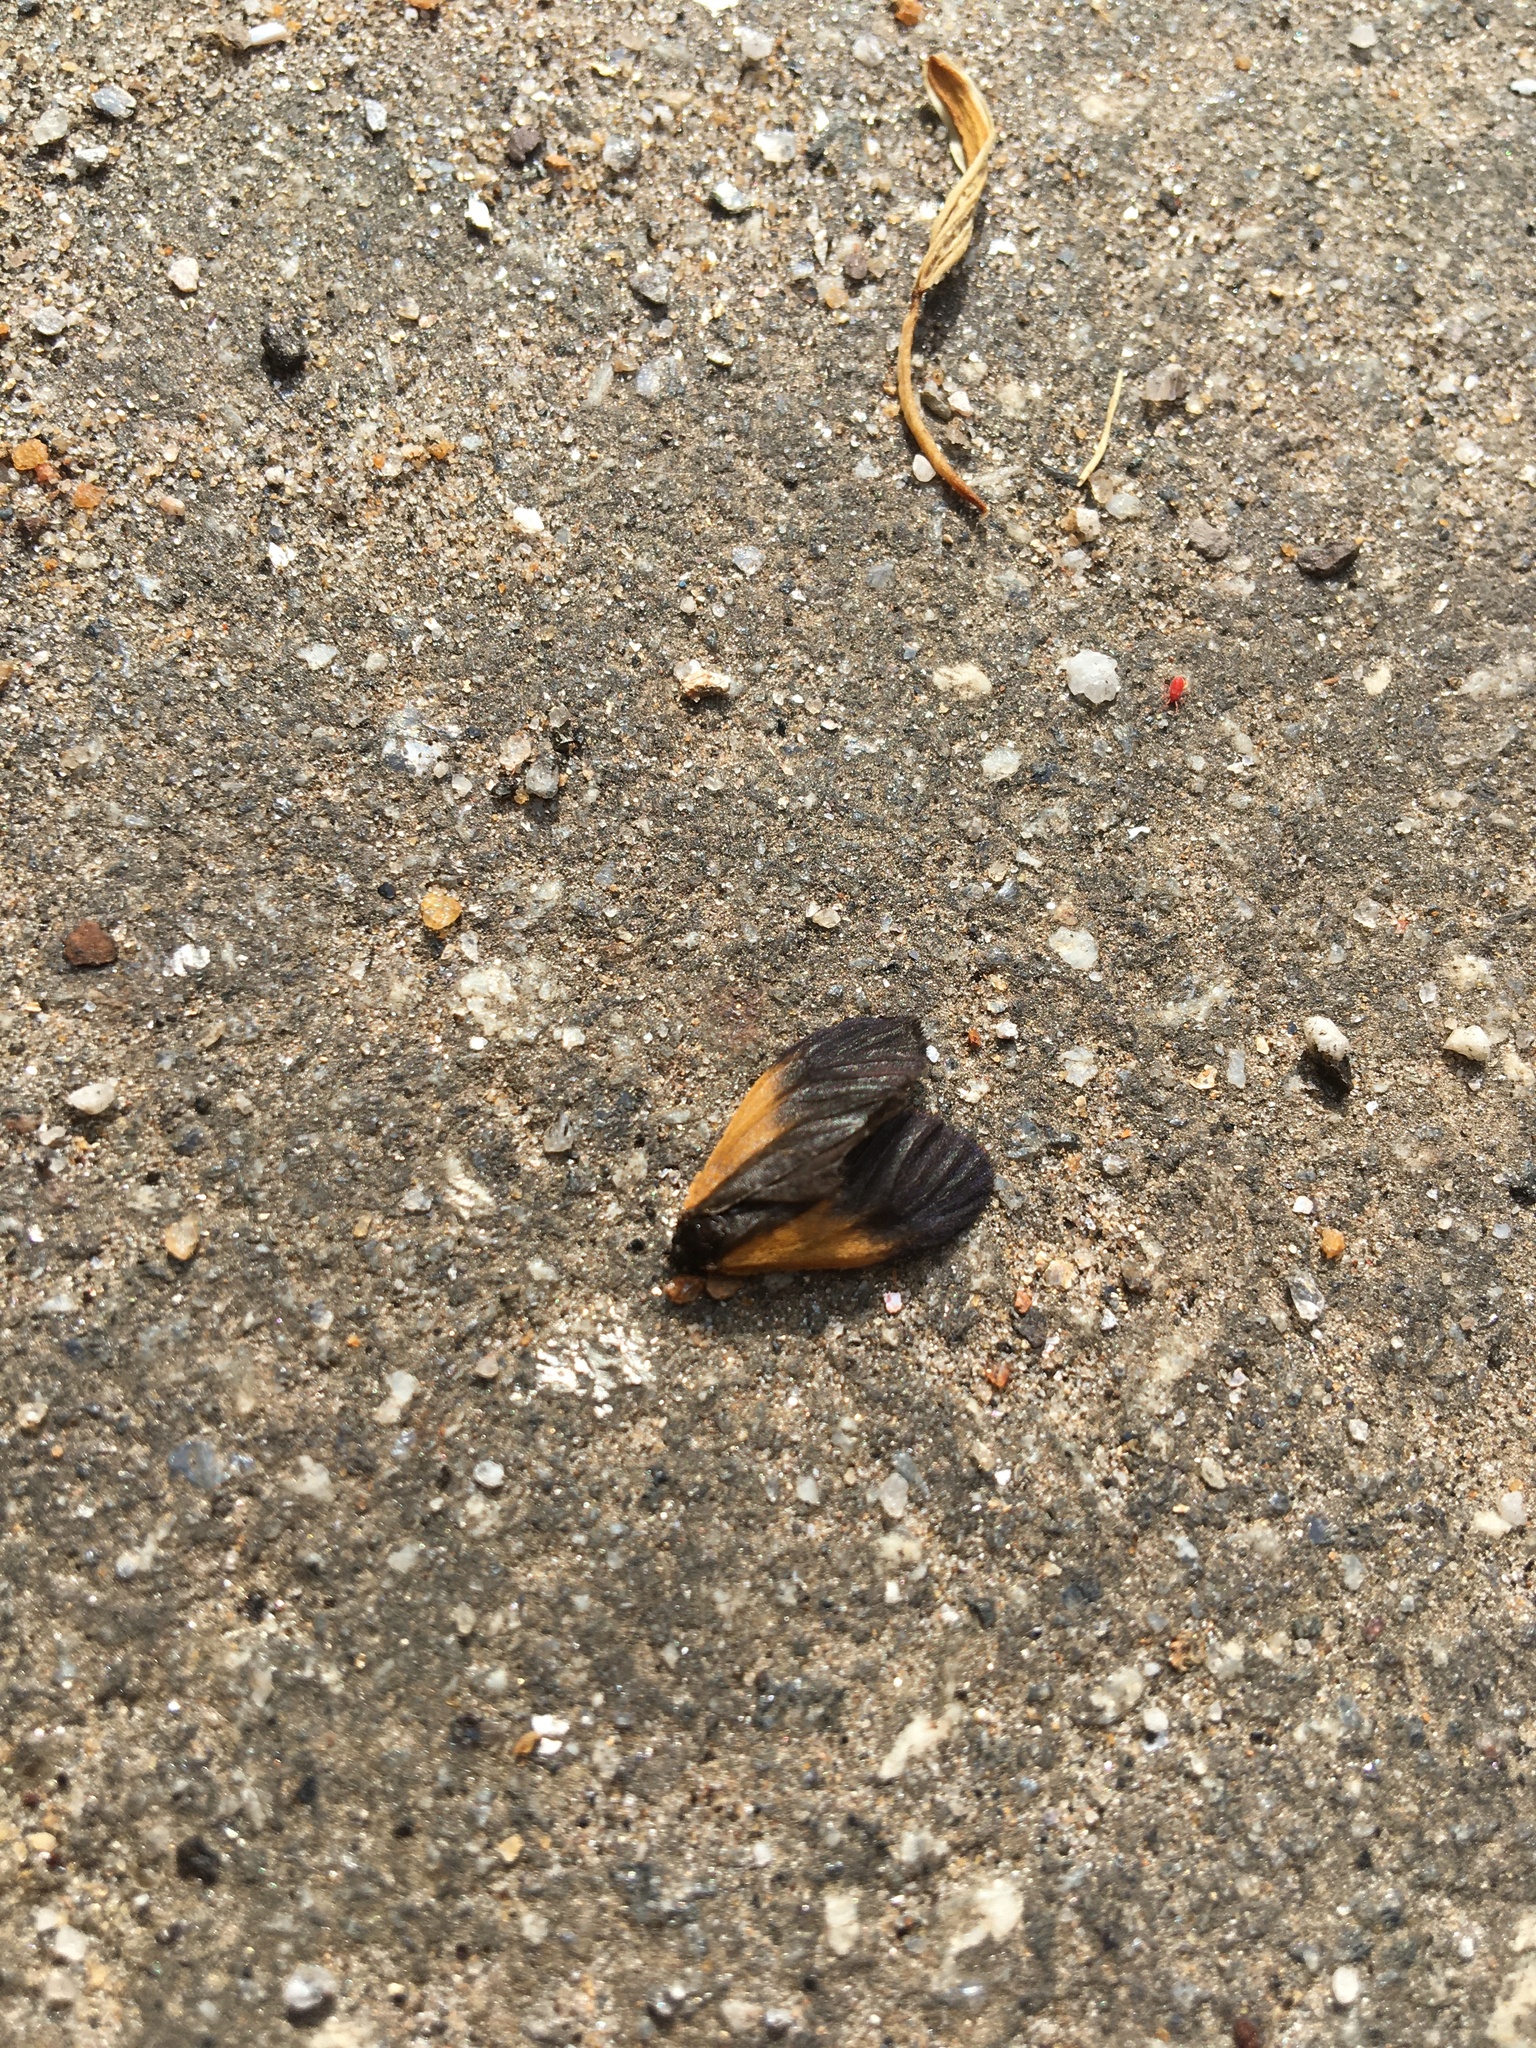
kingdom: Animalia
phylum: Arthropoda
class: Insecta
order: Lepidoptera
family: Zygaenidae
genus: Malthaca
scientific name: Malthaca dimidiata
